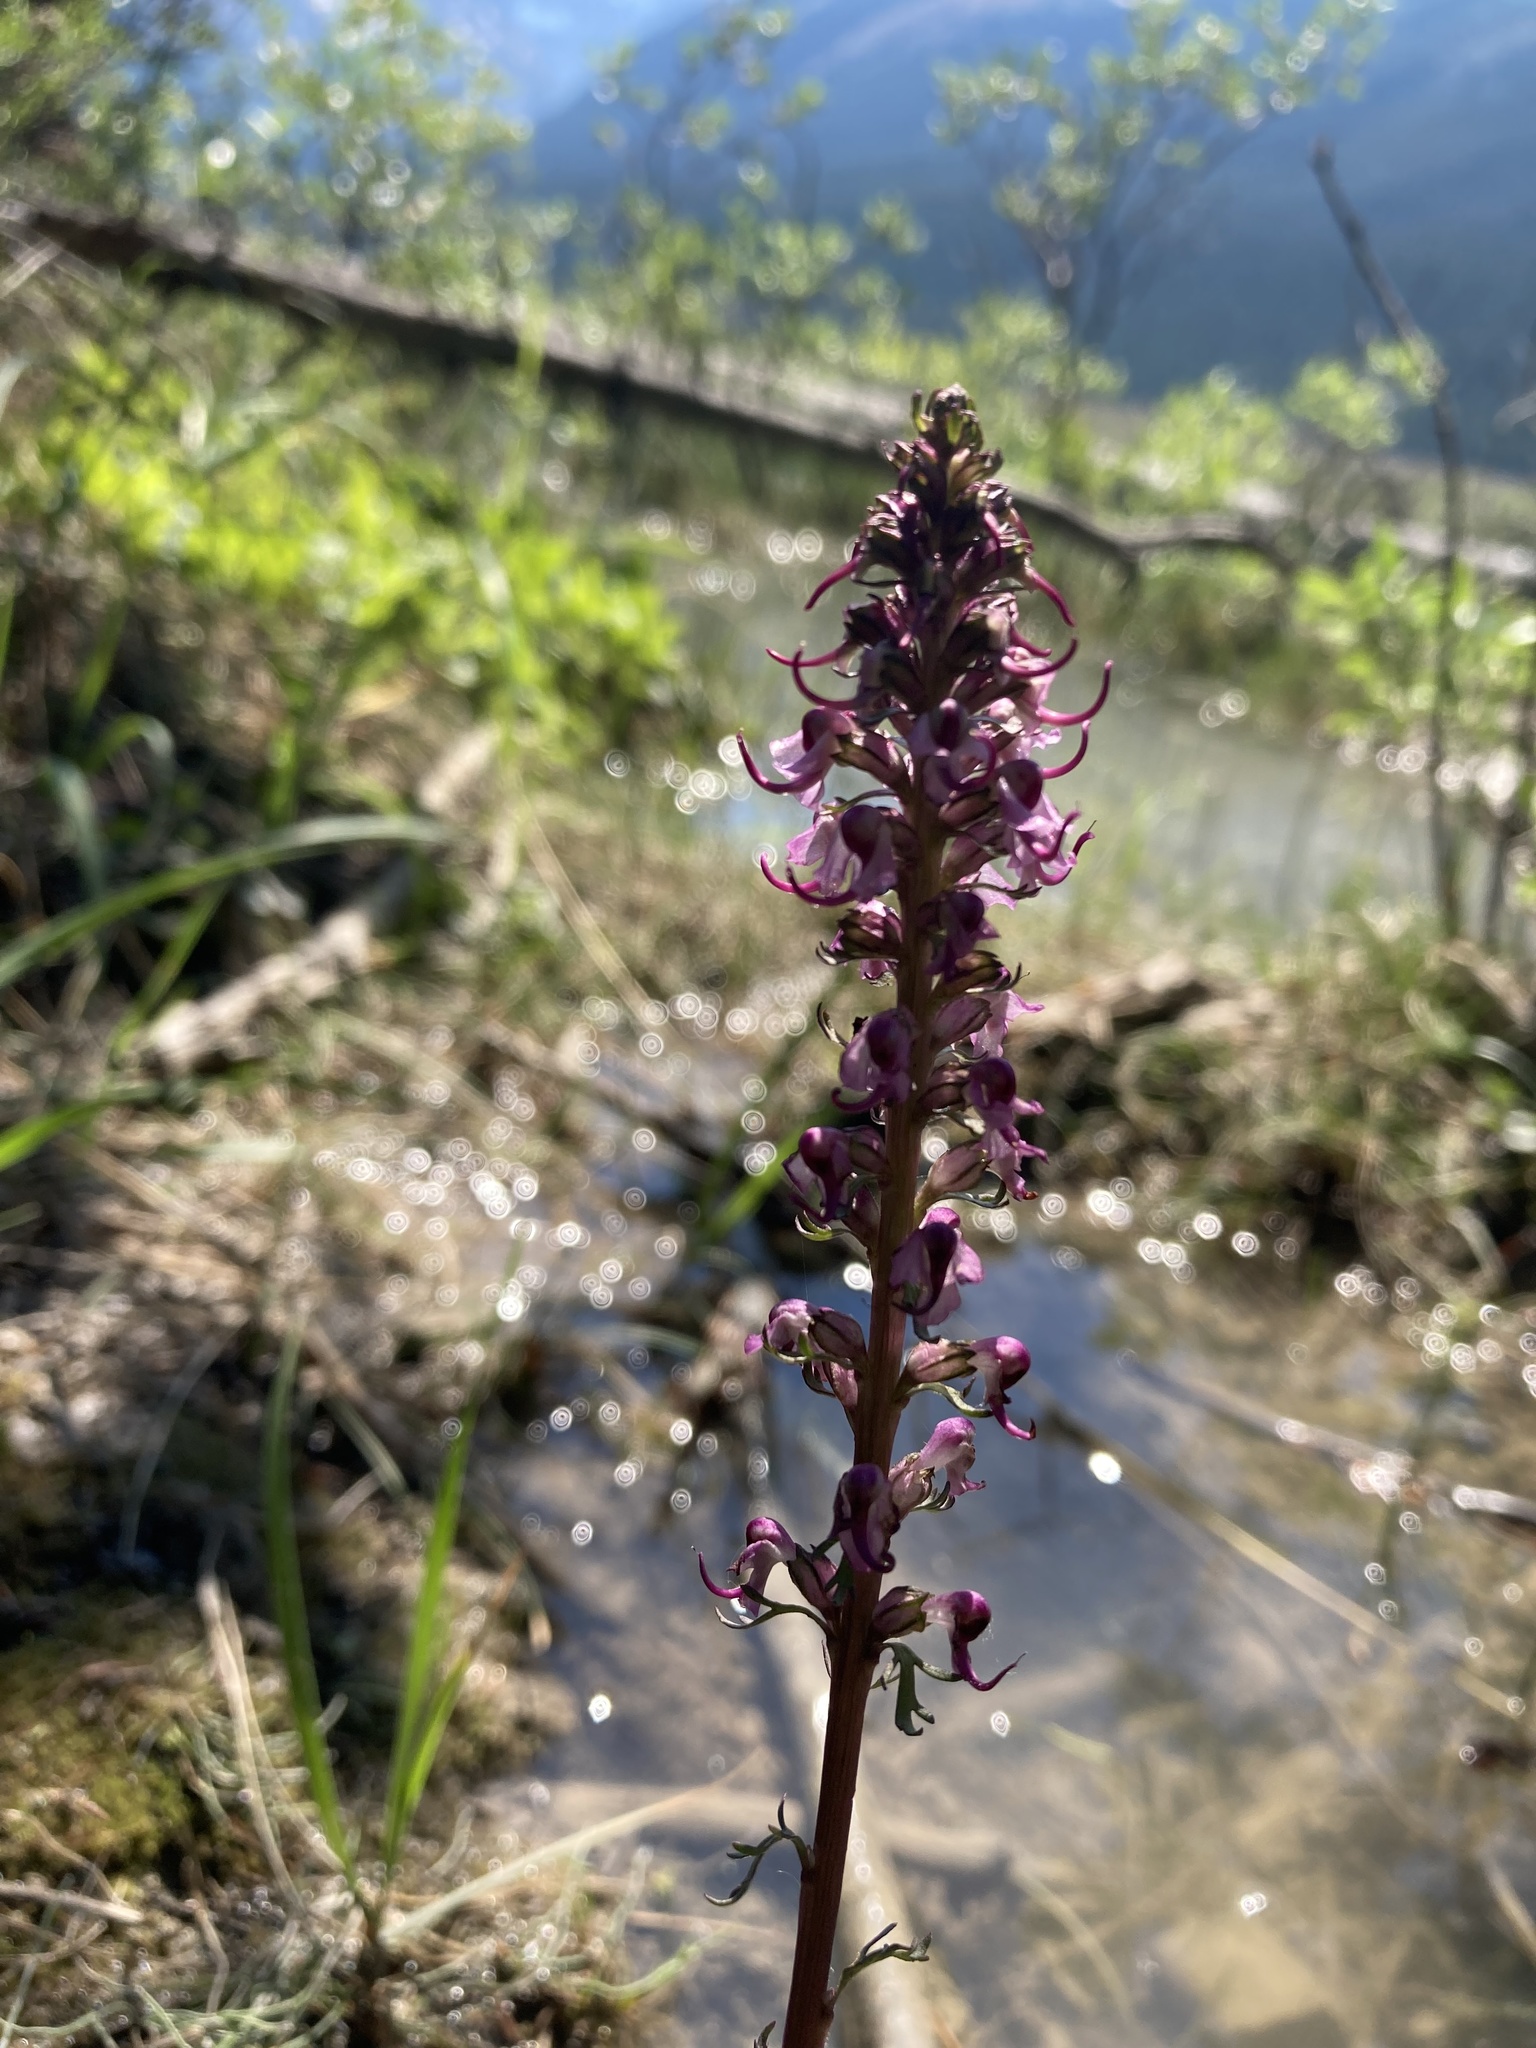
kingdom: Plantae
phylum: Tracheophyta
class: Magnoliopsida
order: Lamiales
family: Orobanchaceae
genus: Pedicularis
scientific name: Pedicularis groenlandica
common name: Elephant's-head
